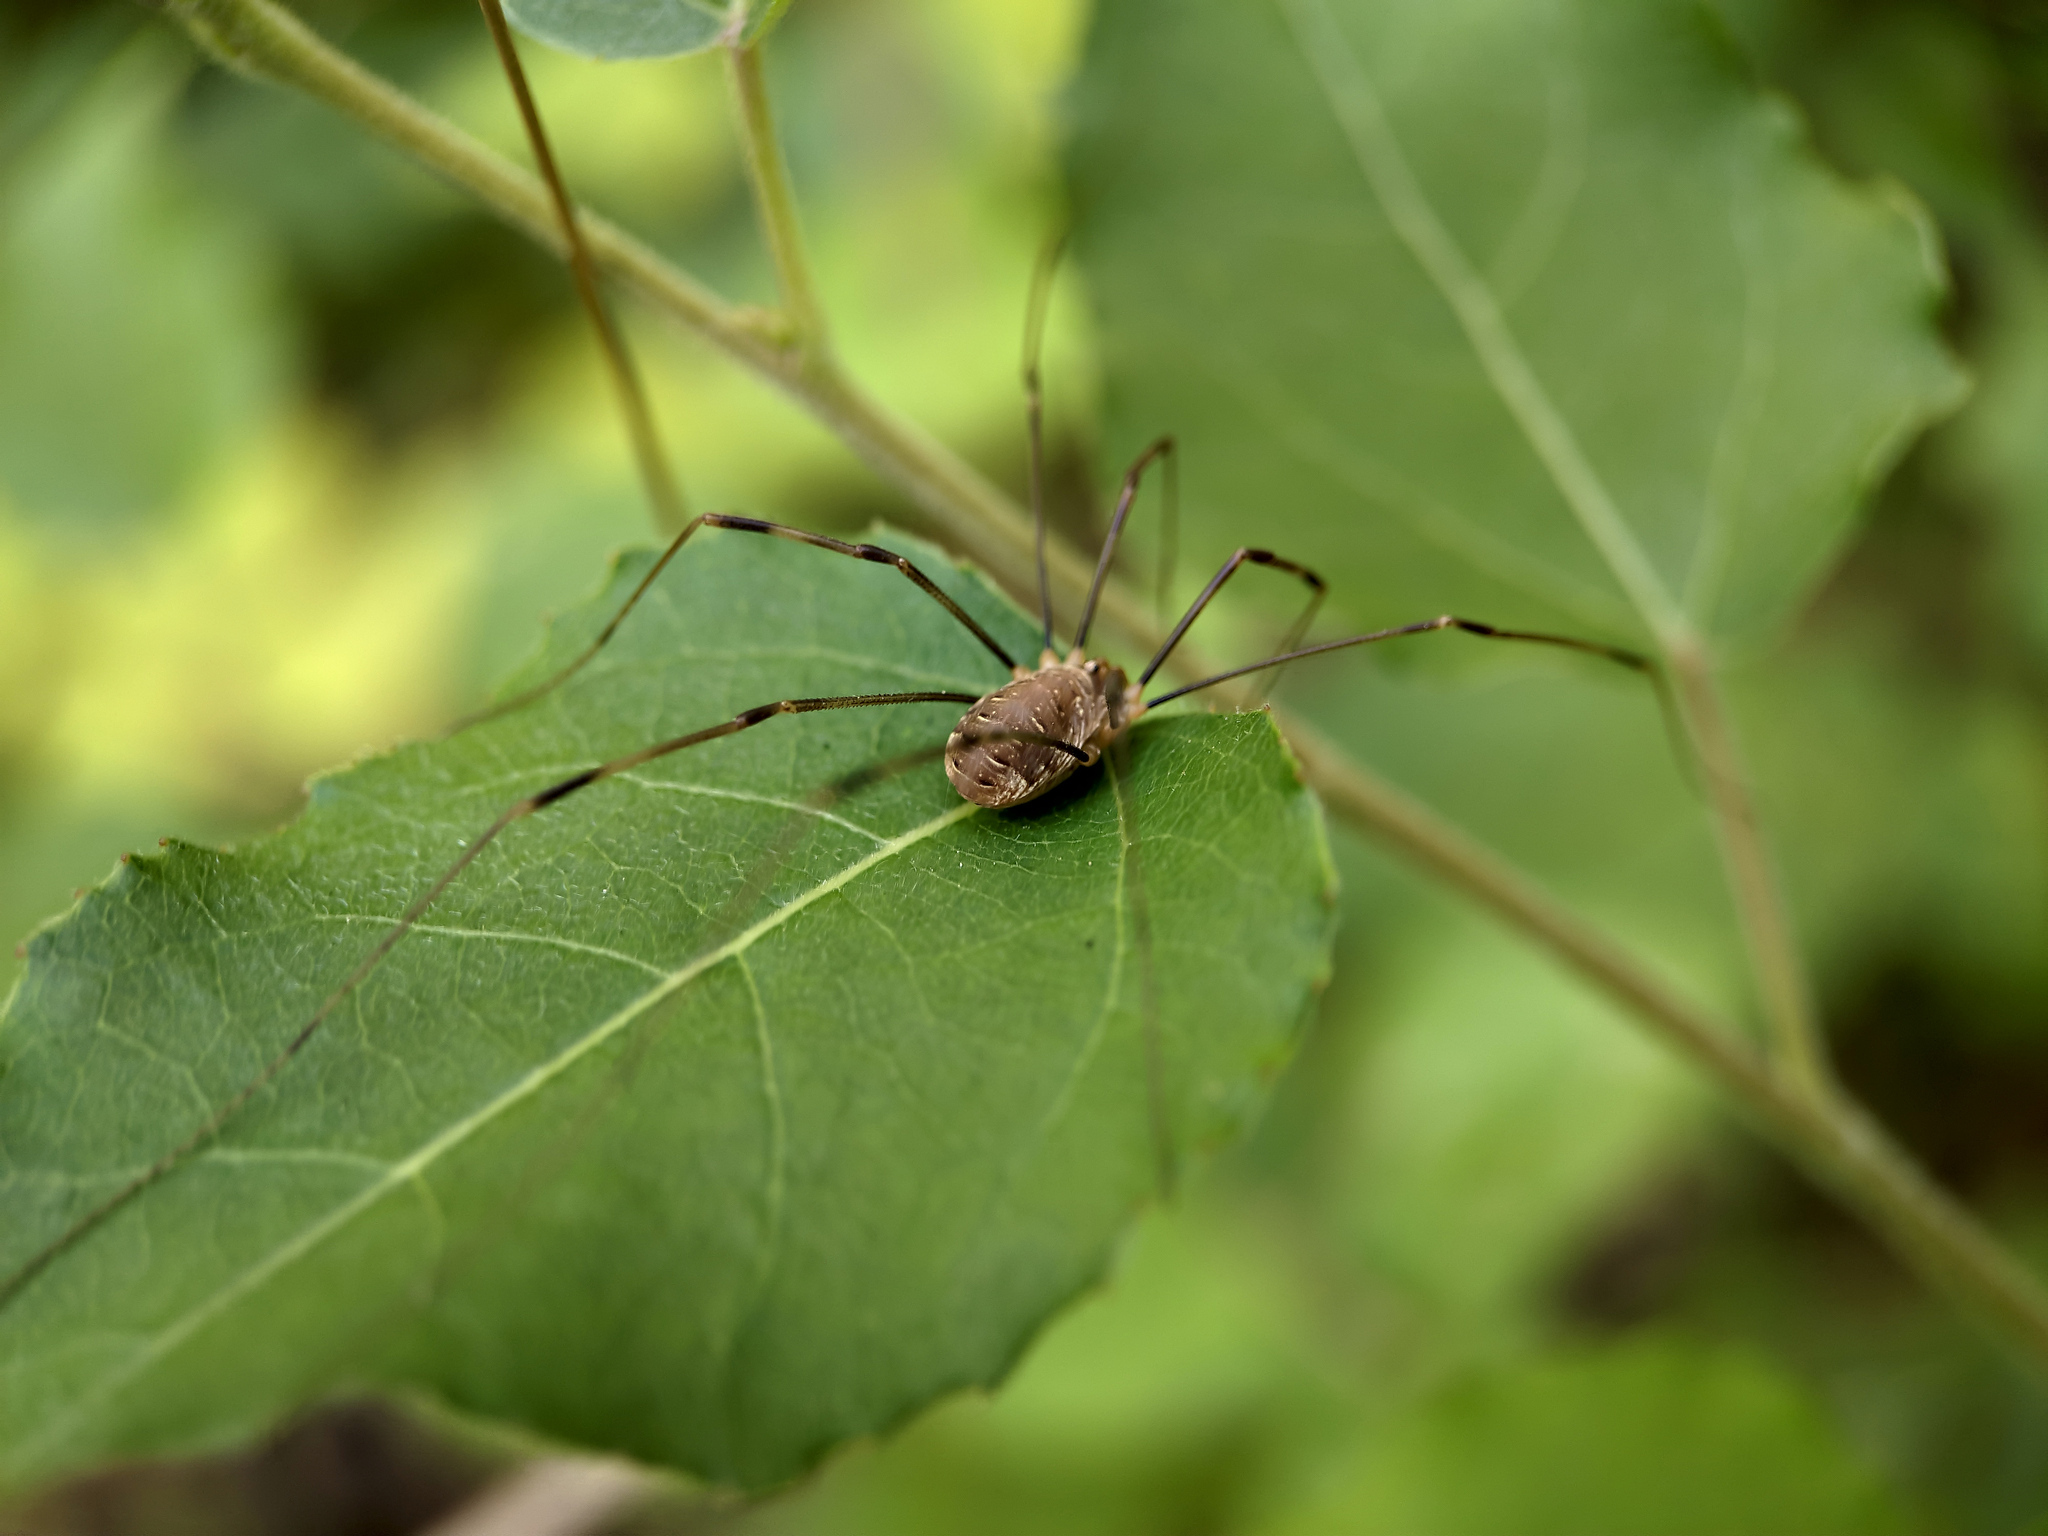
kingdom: Animalia
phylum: Arthropoda
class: Arachnida
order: Opiliones
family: Phalangiidae
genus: Opilio
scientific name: Opilio canestrinii
